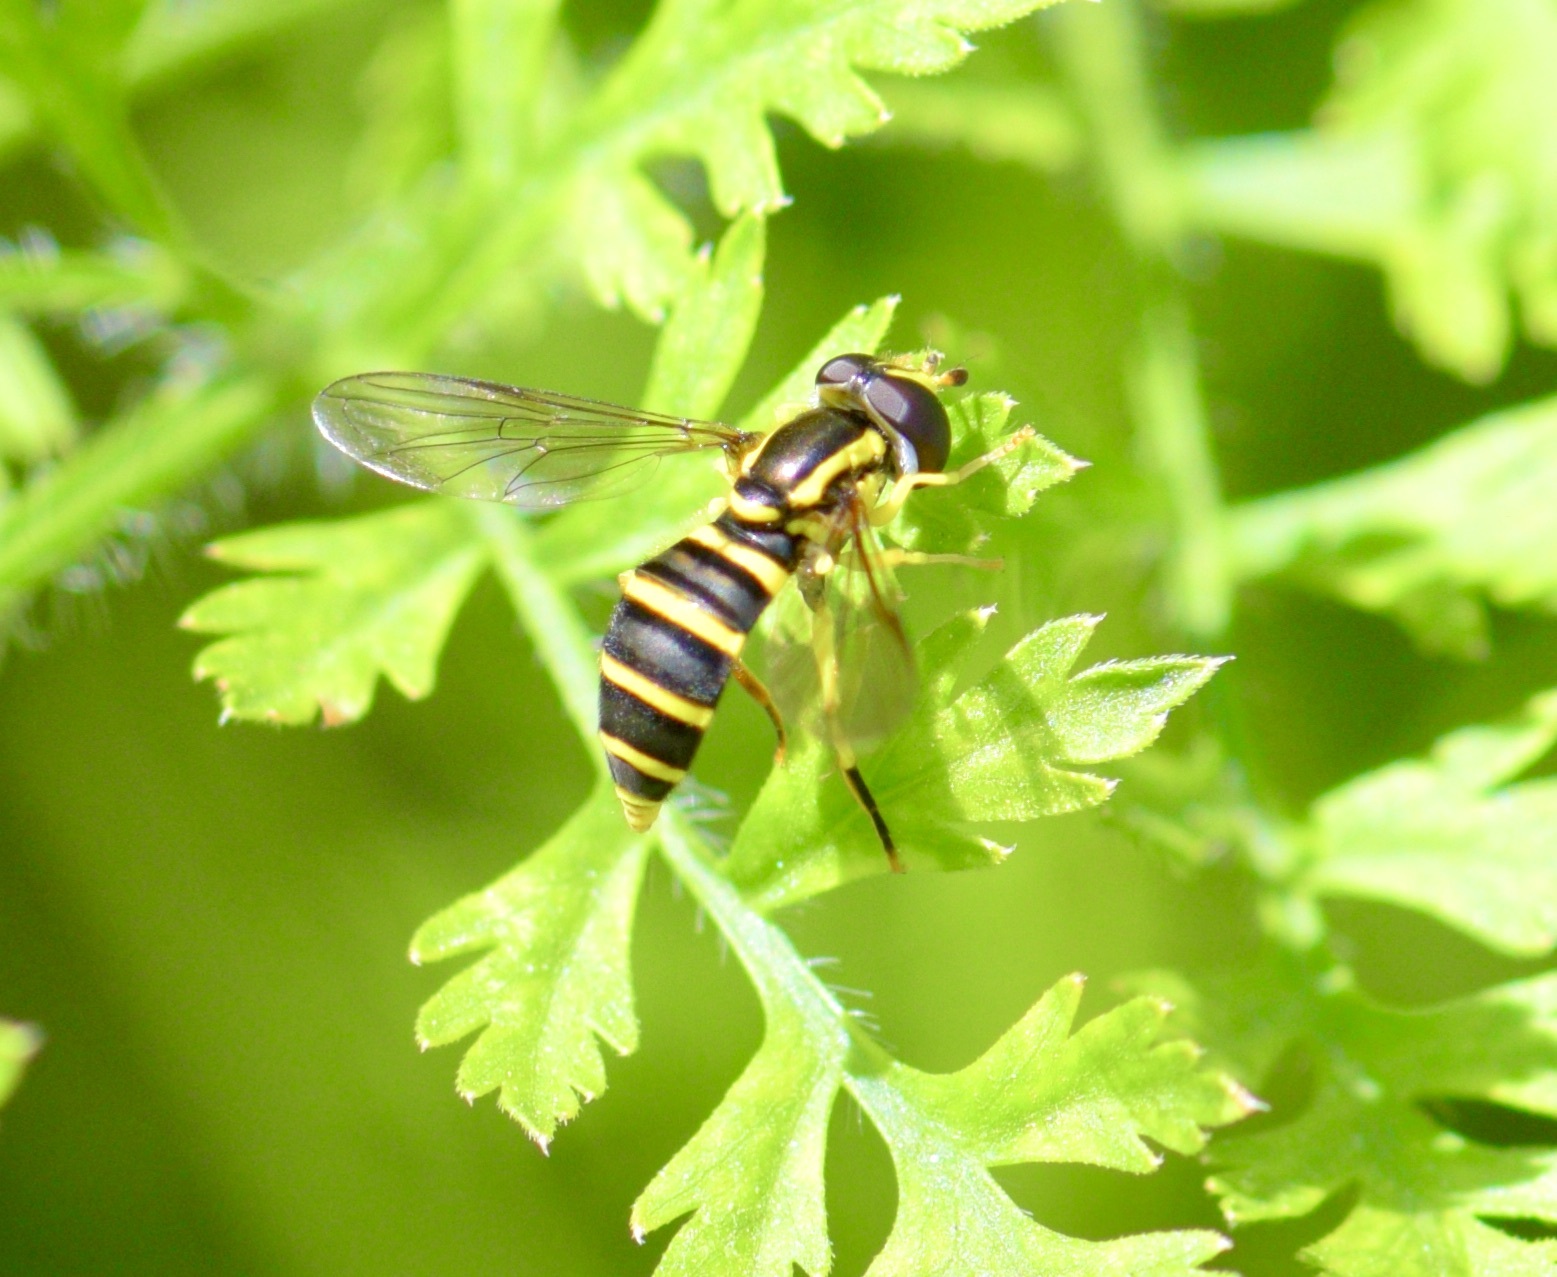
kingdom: Animalia
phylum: Arthropoda
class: Insecta
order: Diptera
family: Syrphidae
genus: Philhelius
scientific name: Philhelius flavipes
